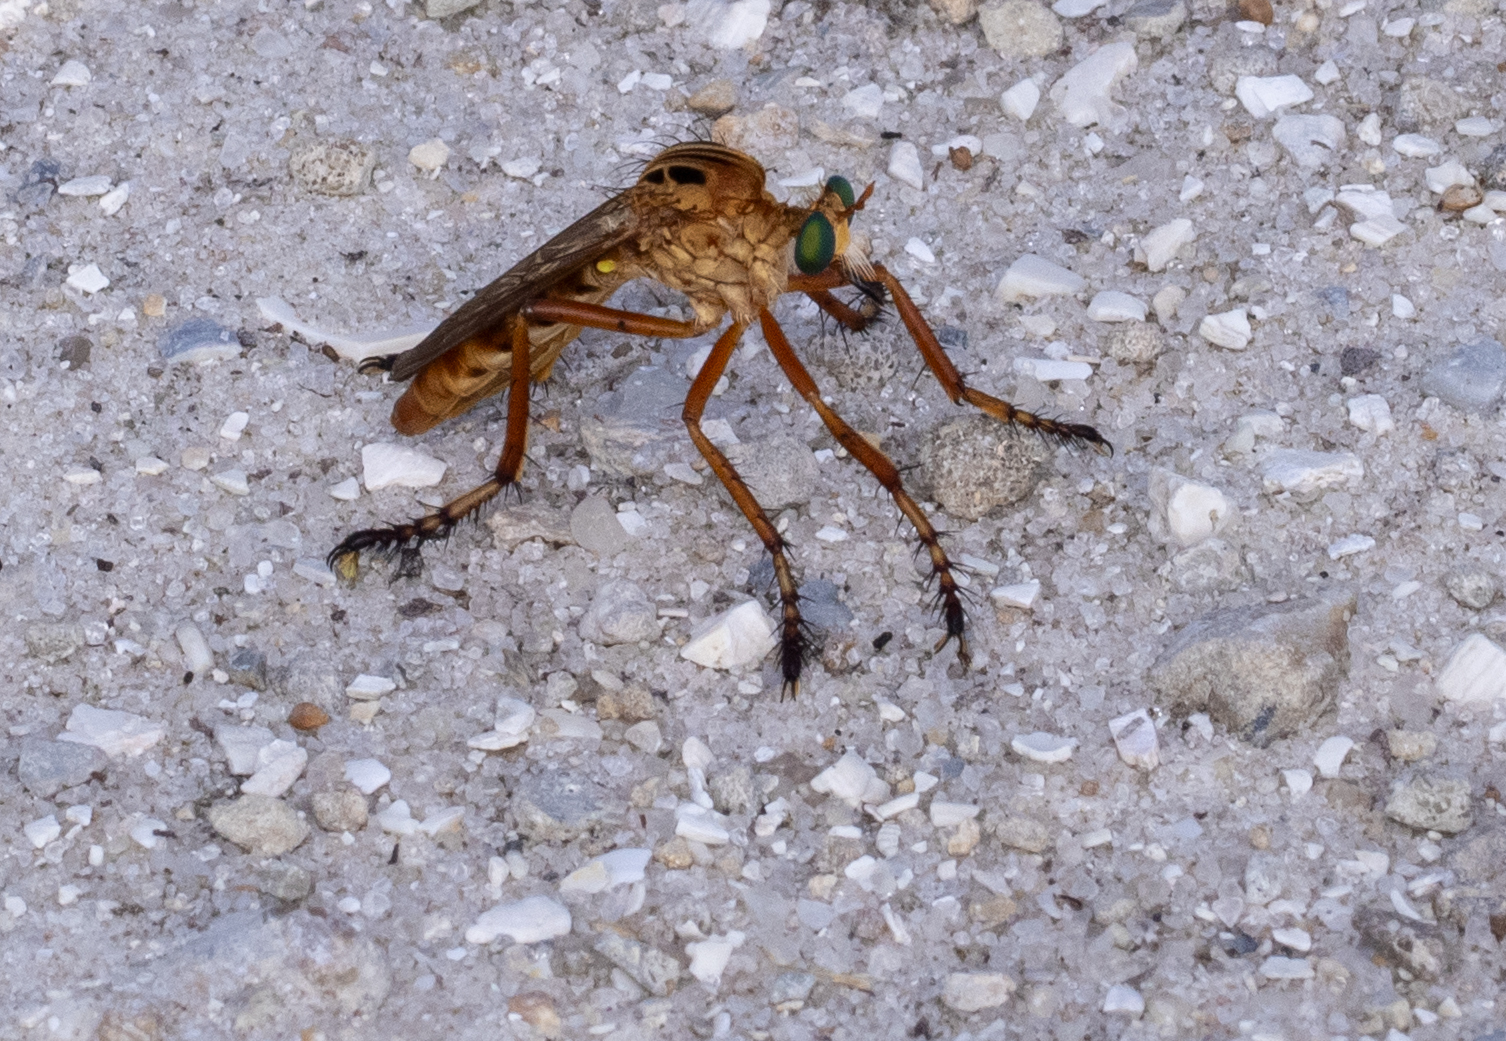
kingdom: Animalia
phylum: Arthropoda
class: Insecta
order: Diptera
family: Asilidae
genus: Diogmites
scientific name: Diogmites esuriens
